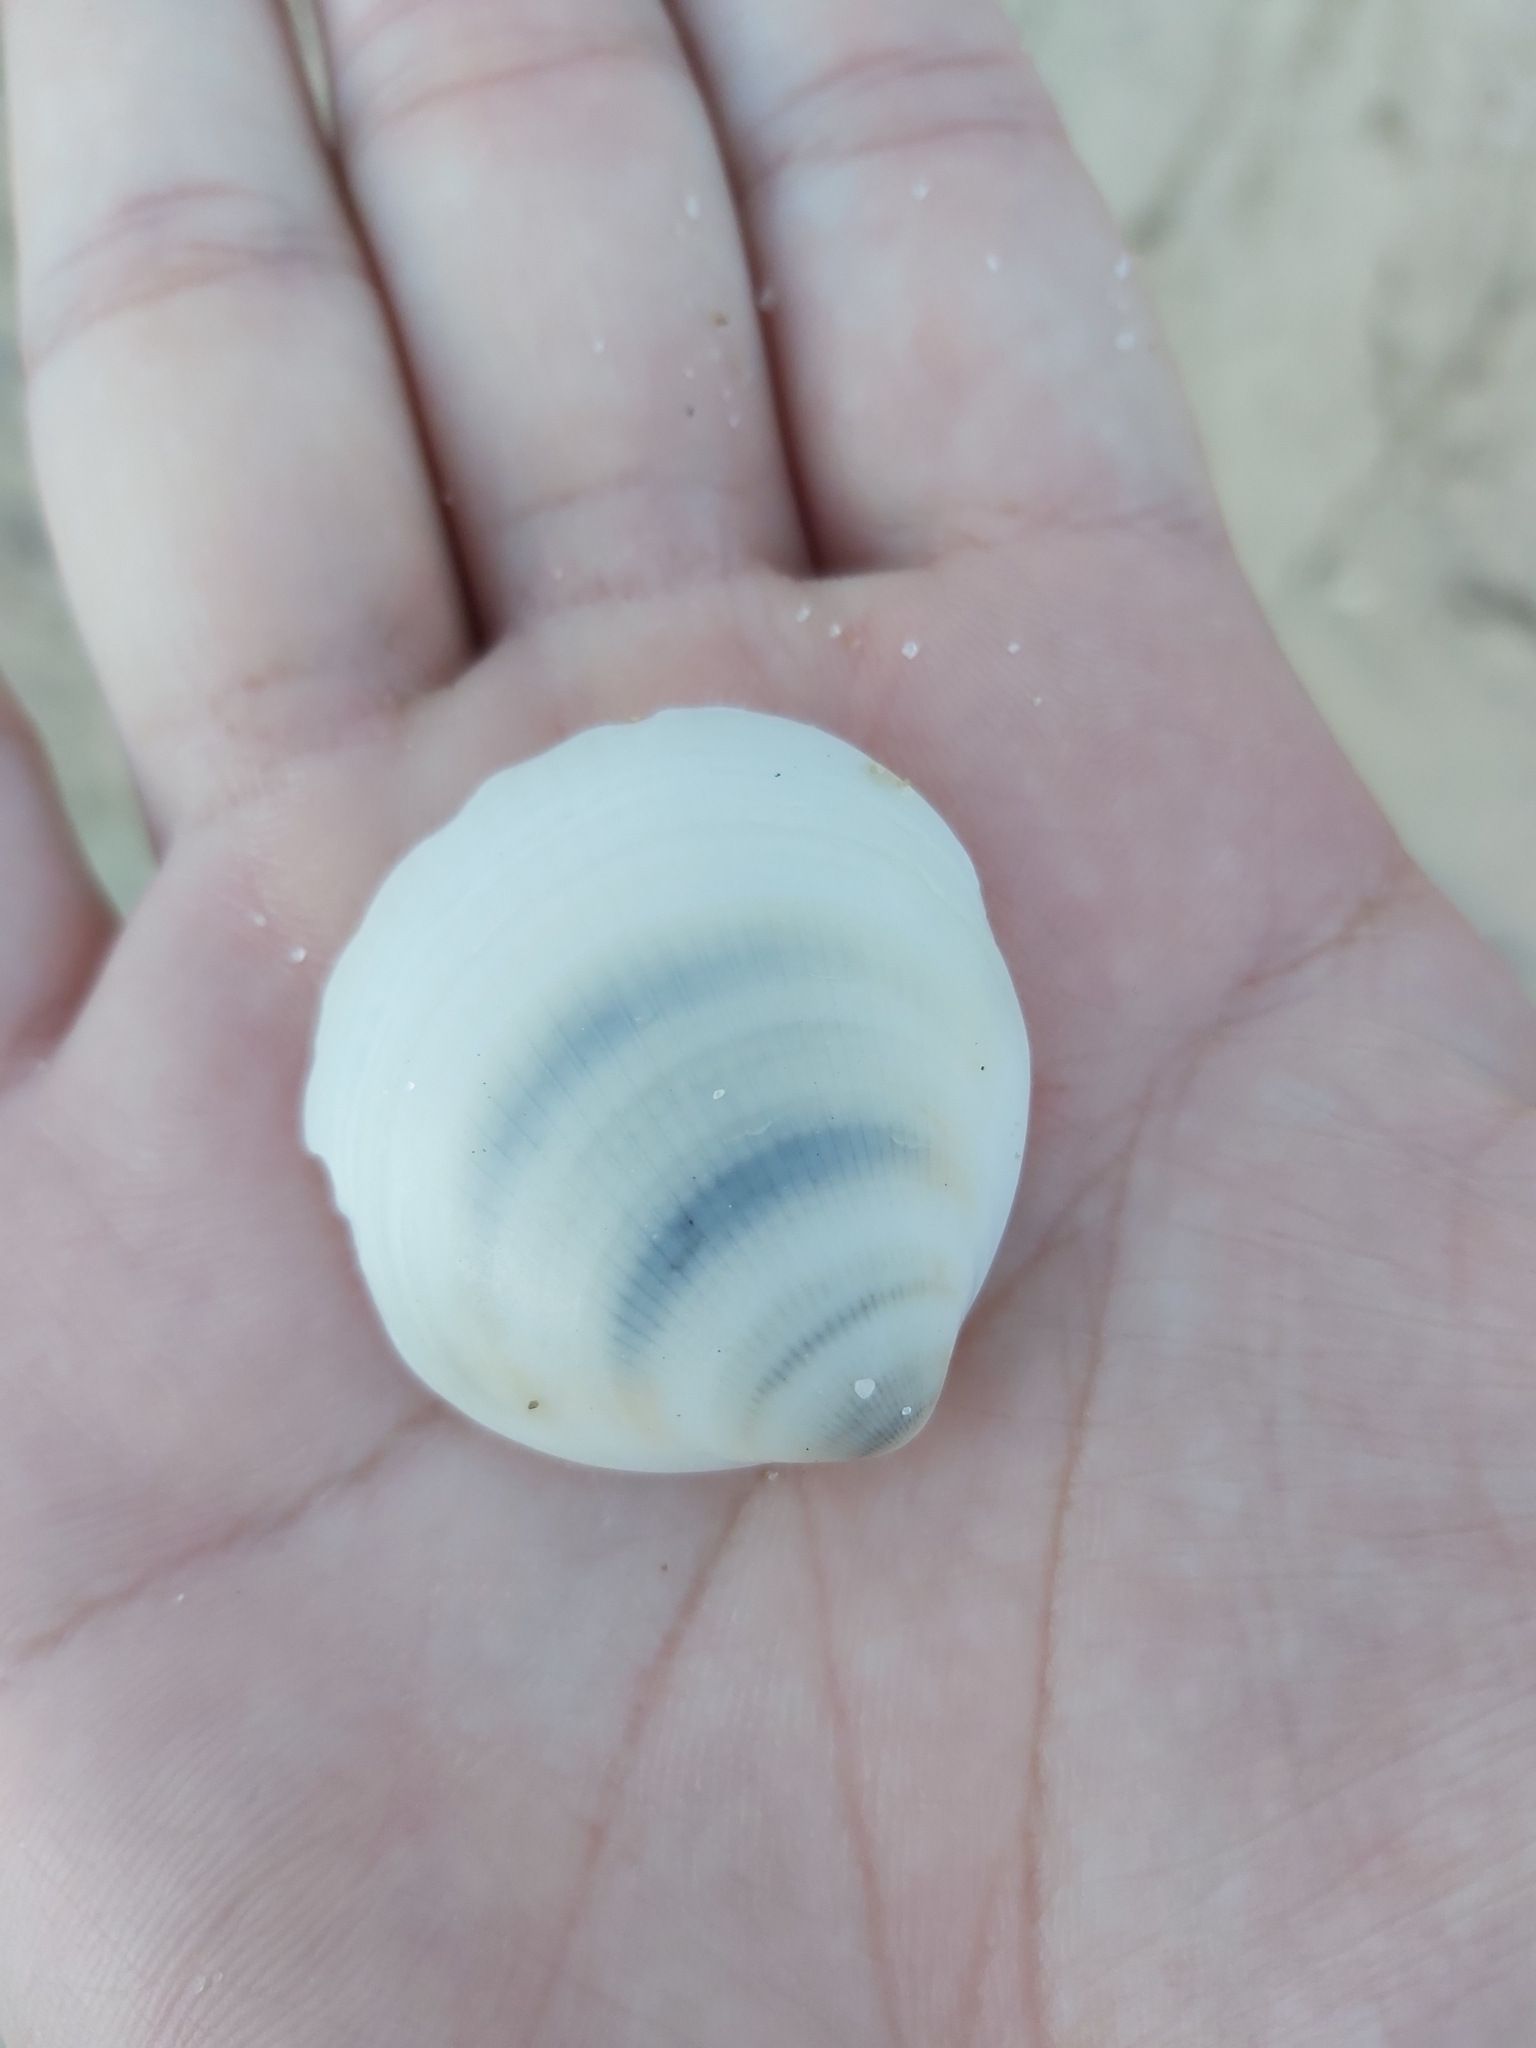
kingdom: Animalia
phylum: Mollusca
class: Bivalvia
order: Arcida
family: Glycymerididae
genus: Glycymeris
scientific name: Glycymeris grayana
